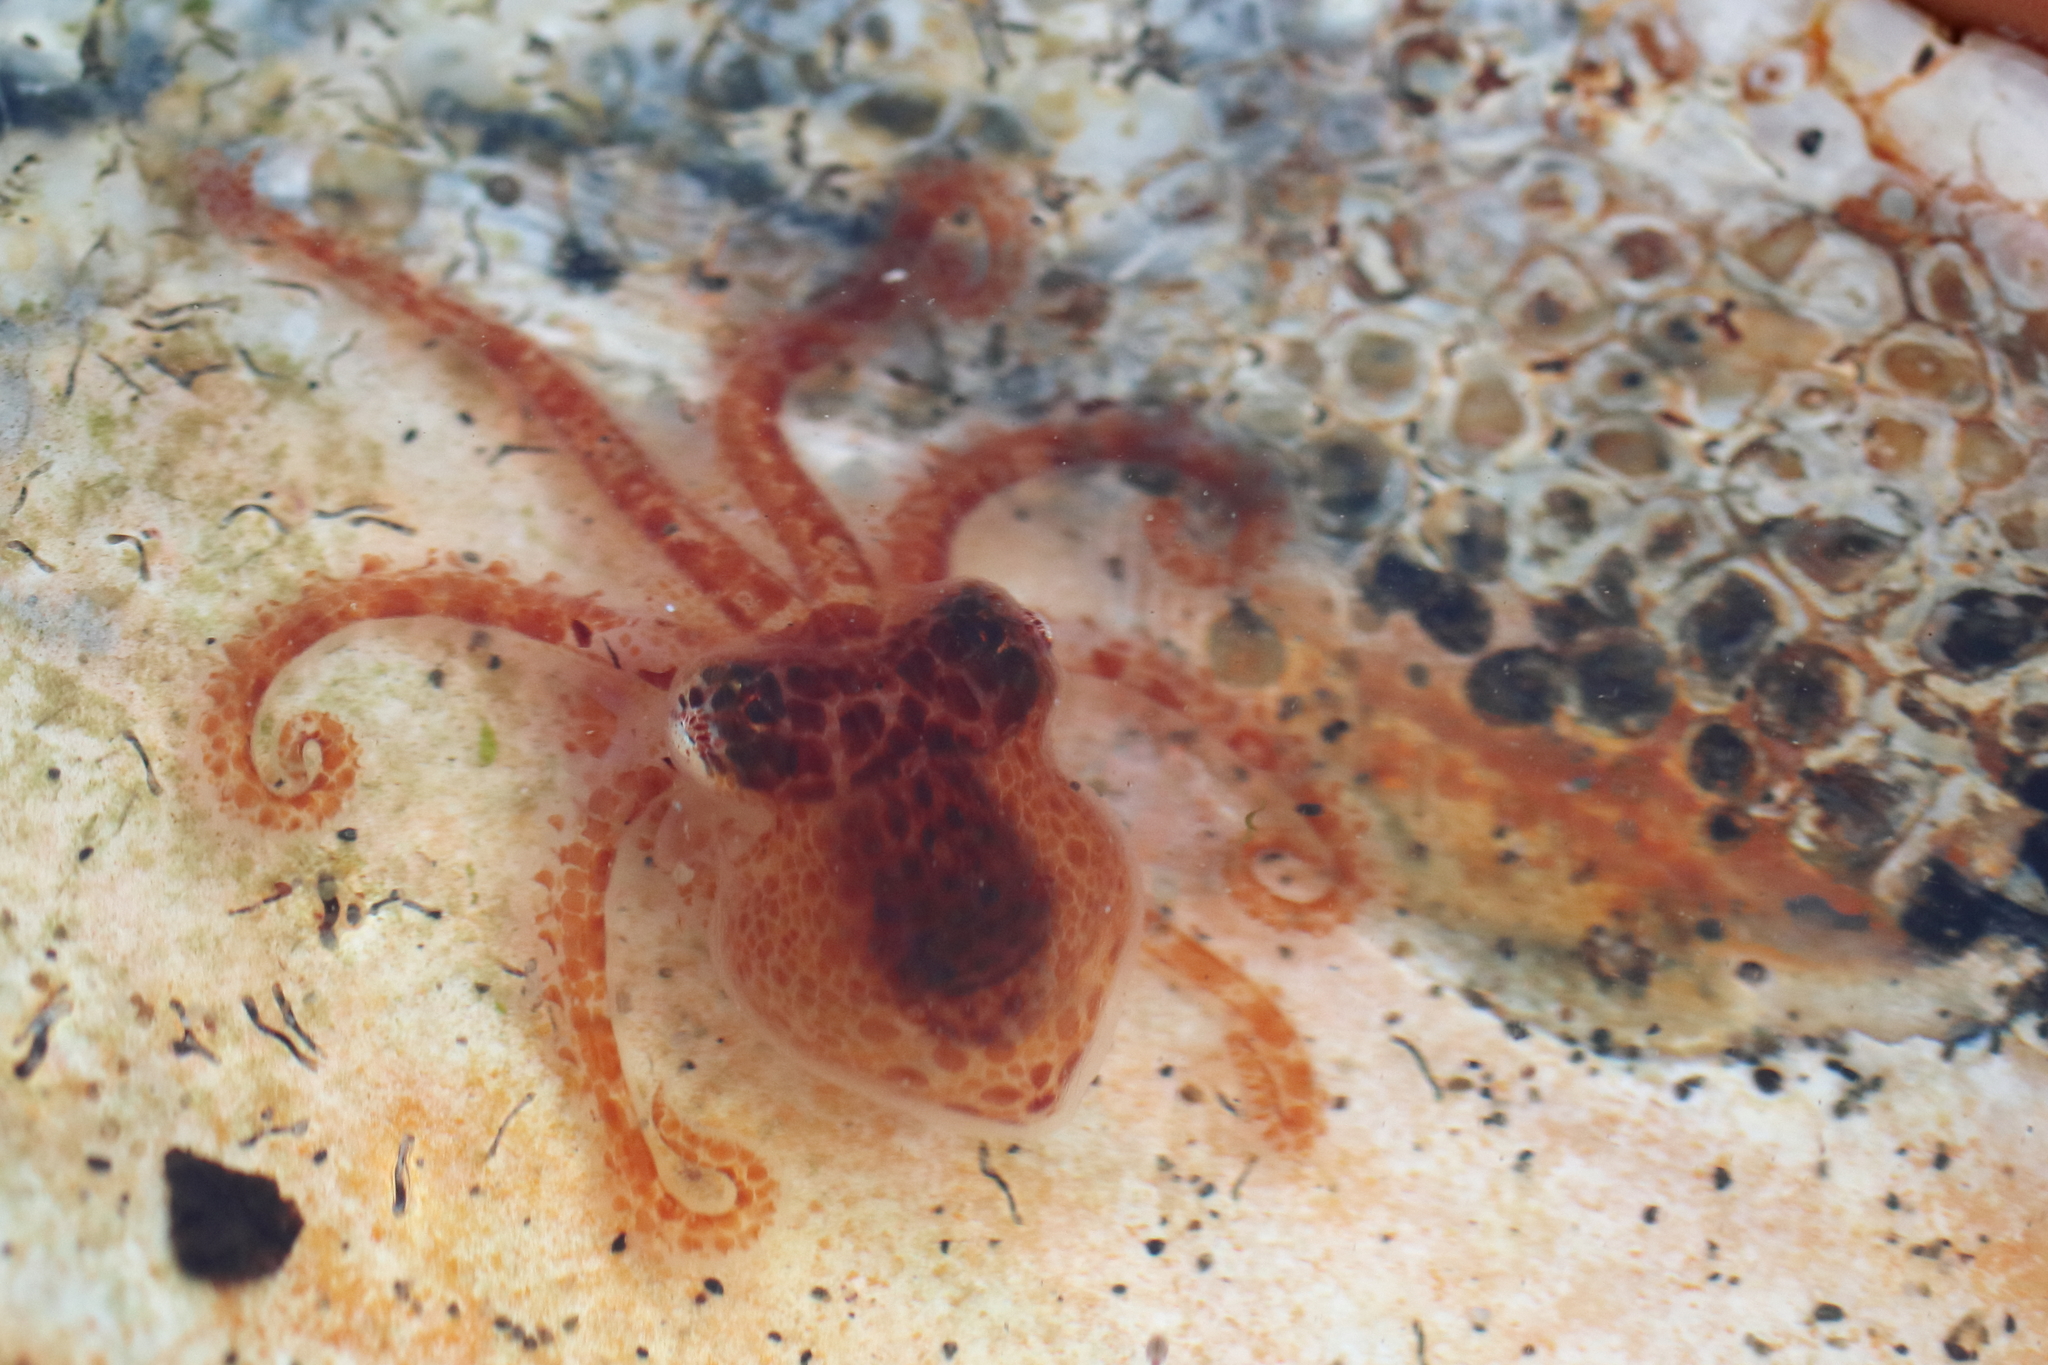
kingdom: Animalia
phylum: Mollusca
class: Cephalopoda
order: Octopoda
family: Enteroctopodidae
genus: Enteroctopus
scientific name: Enteroctopus dofleini
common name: Giant north pacific octopus
